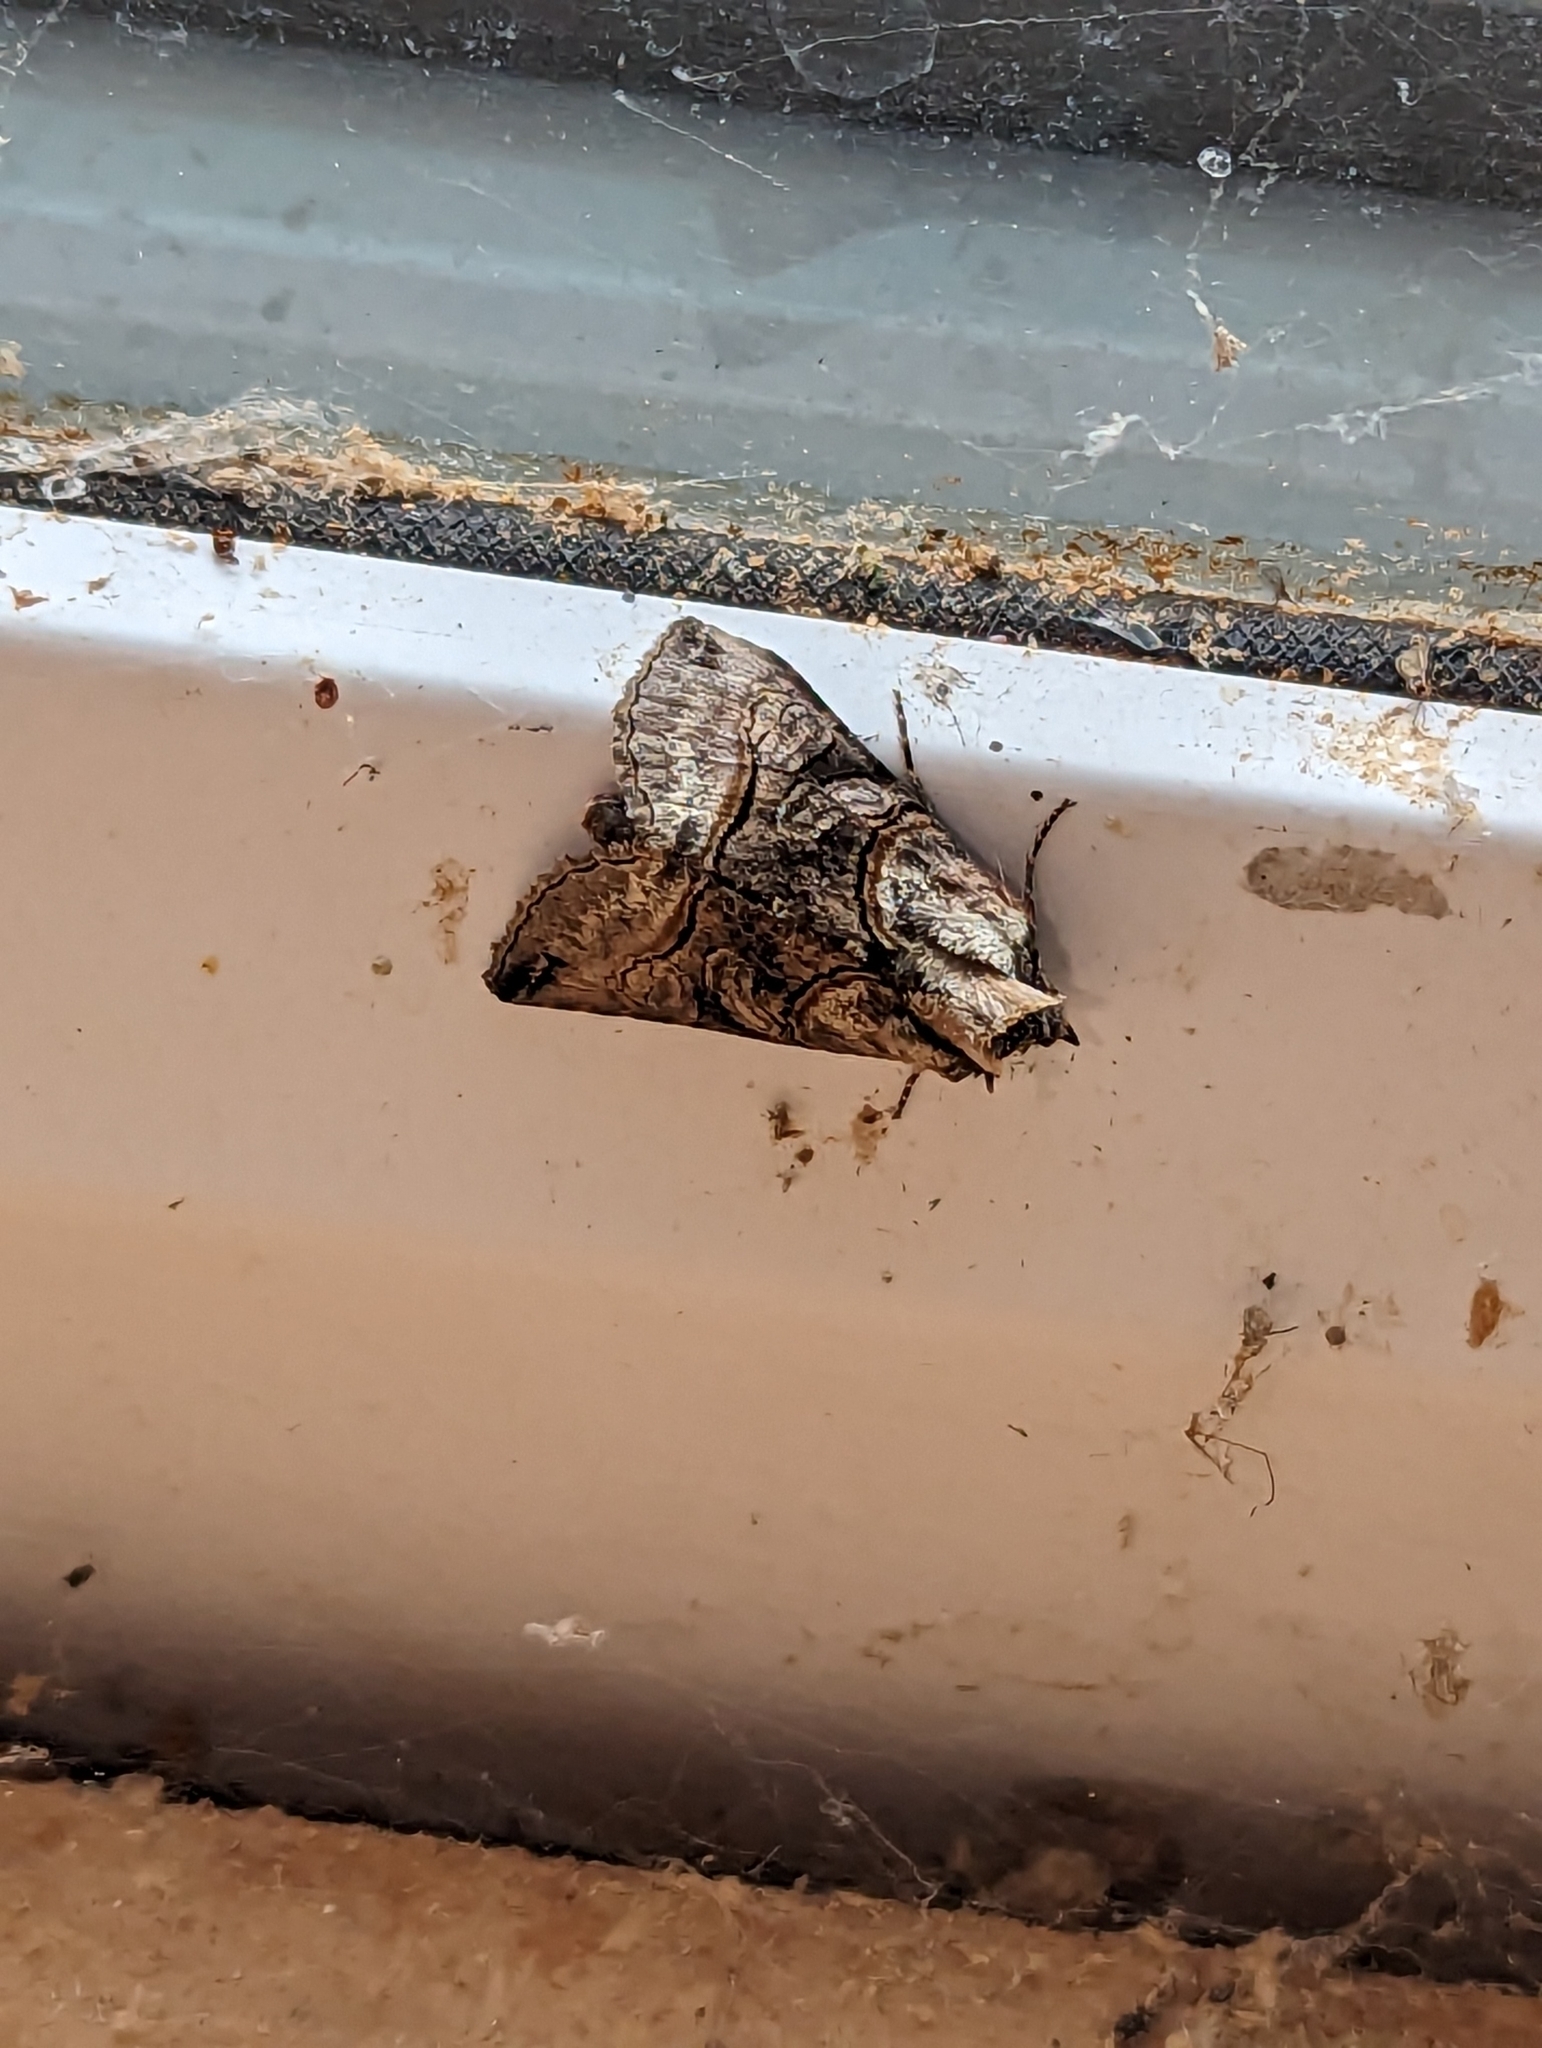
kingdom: Animalia
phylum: Arthropoda
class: Insecta
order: Lepidoptera
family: Noctuidae
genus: Abrostola
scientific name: Abrostola tripartita
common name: Spectacle
